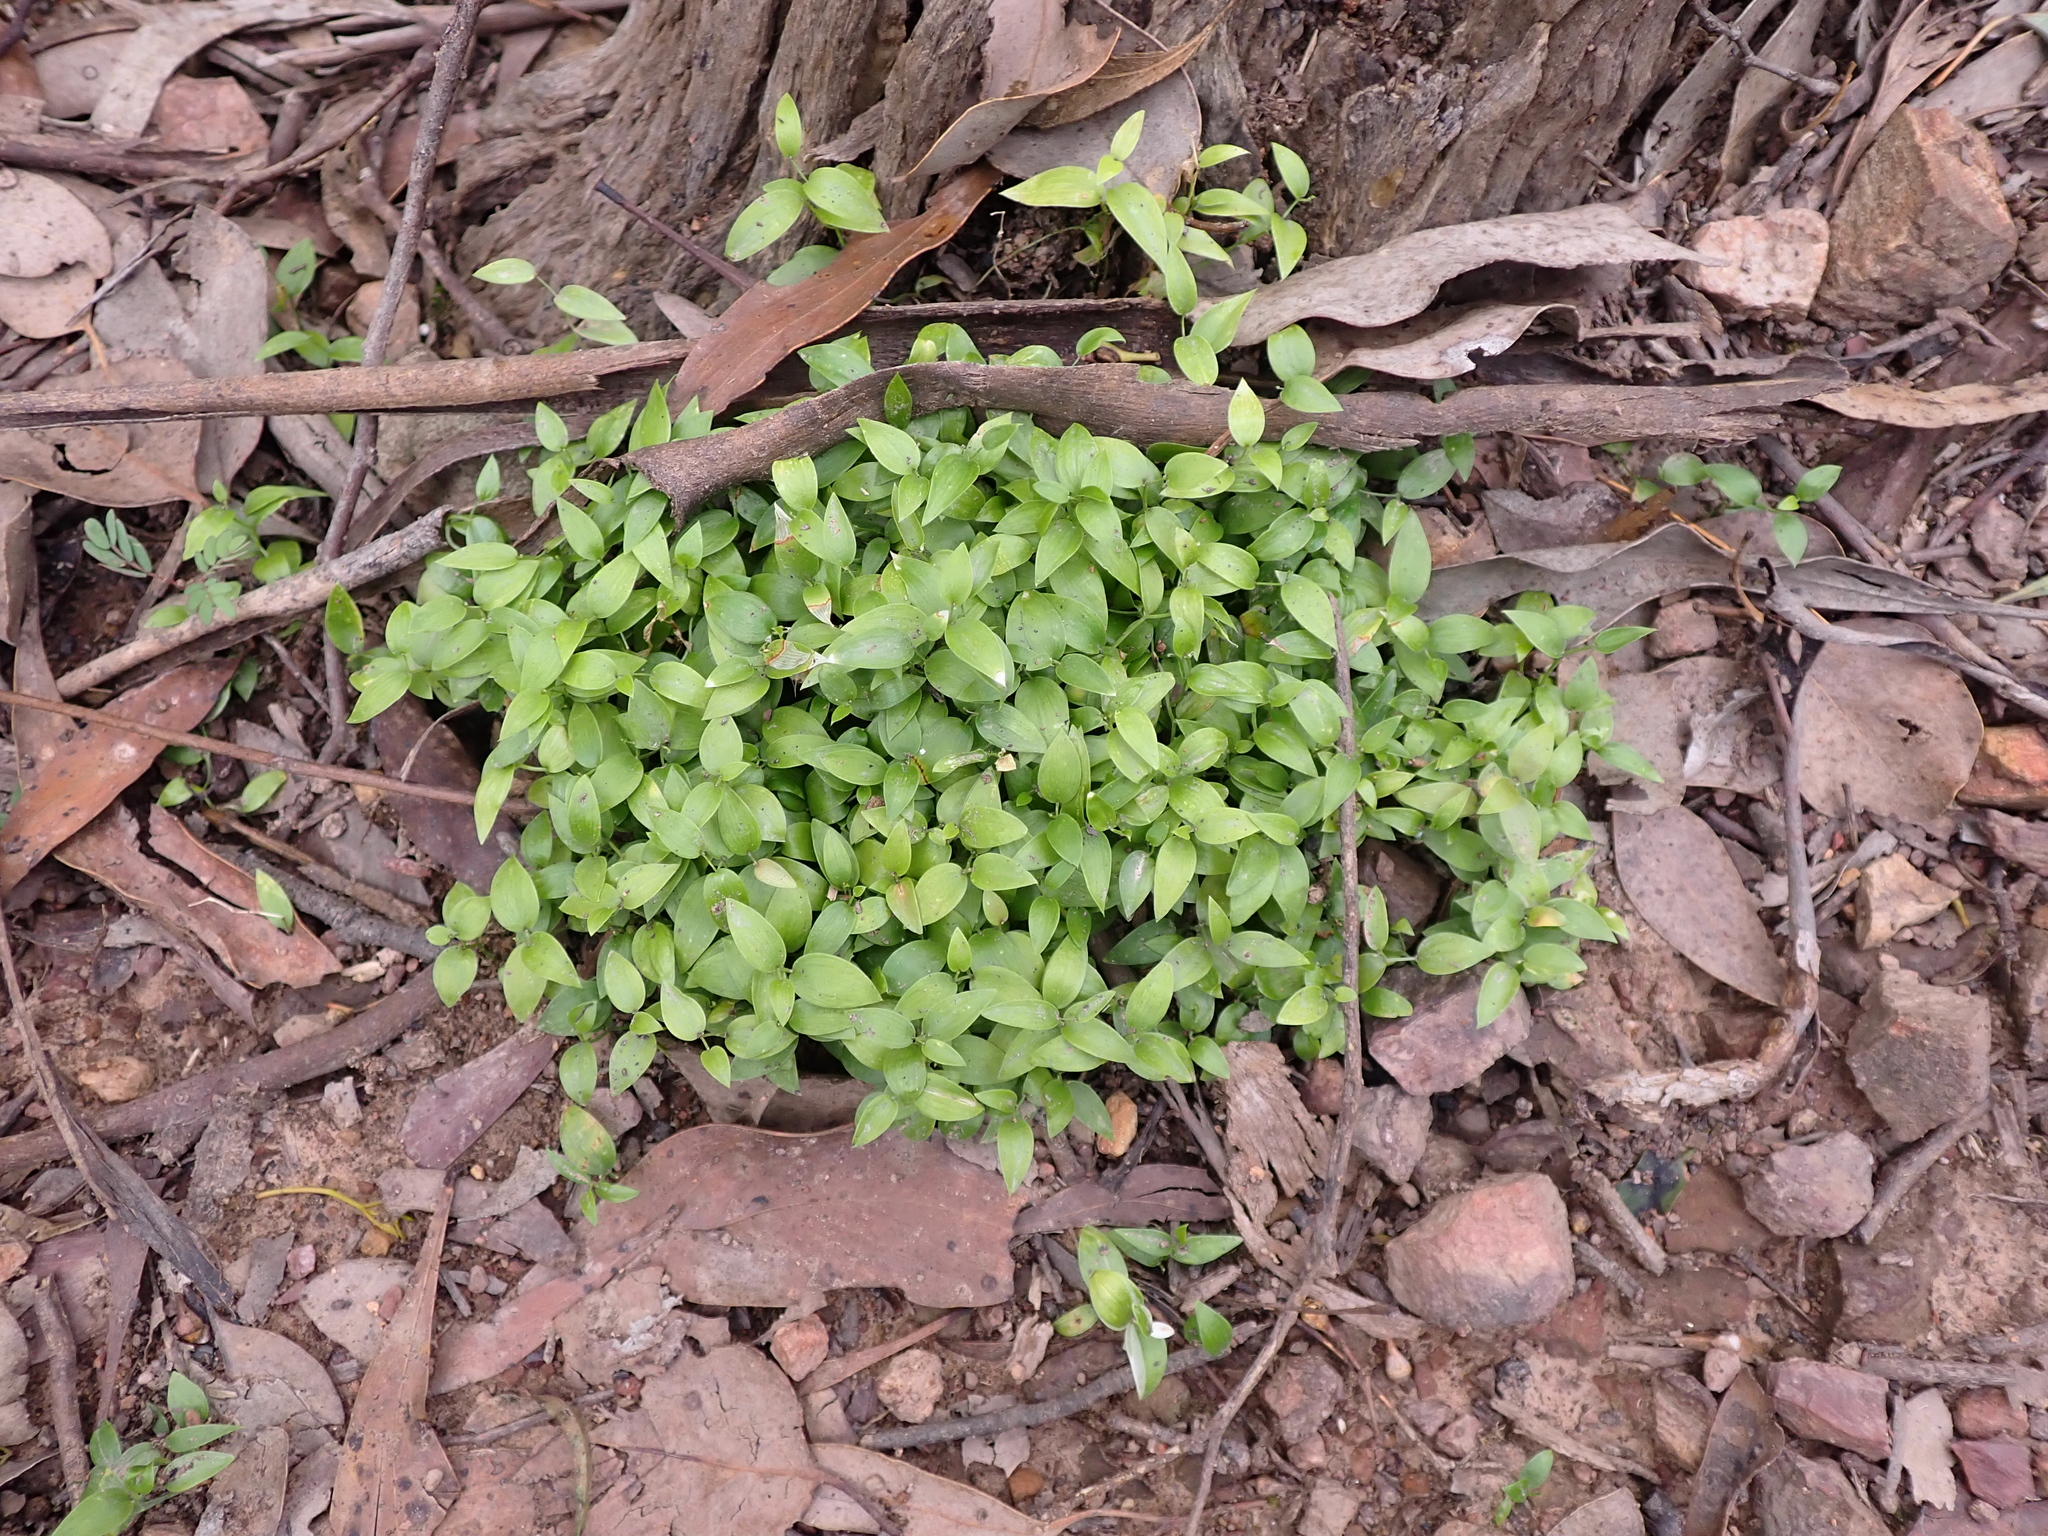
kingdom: Plantae
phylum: Tracheophyta
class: Liliopsida
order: Asparagales
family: Asparagaceae
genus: Asparagus
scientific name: Asparagus asparagoides
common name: African asparagus fern
